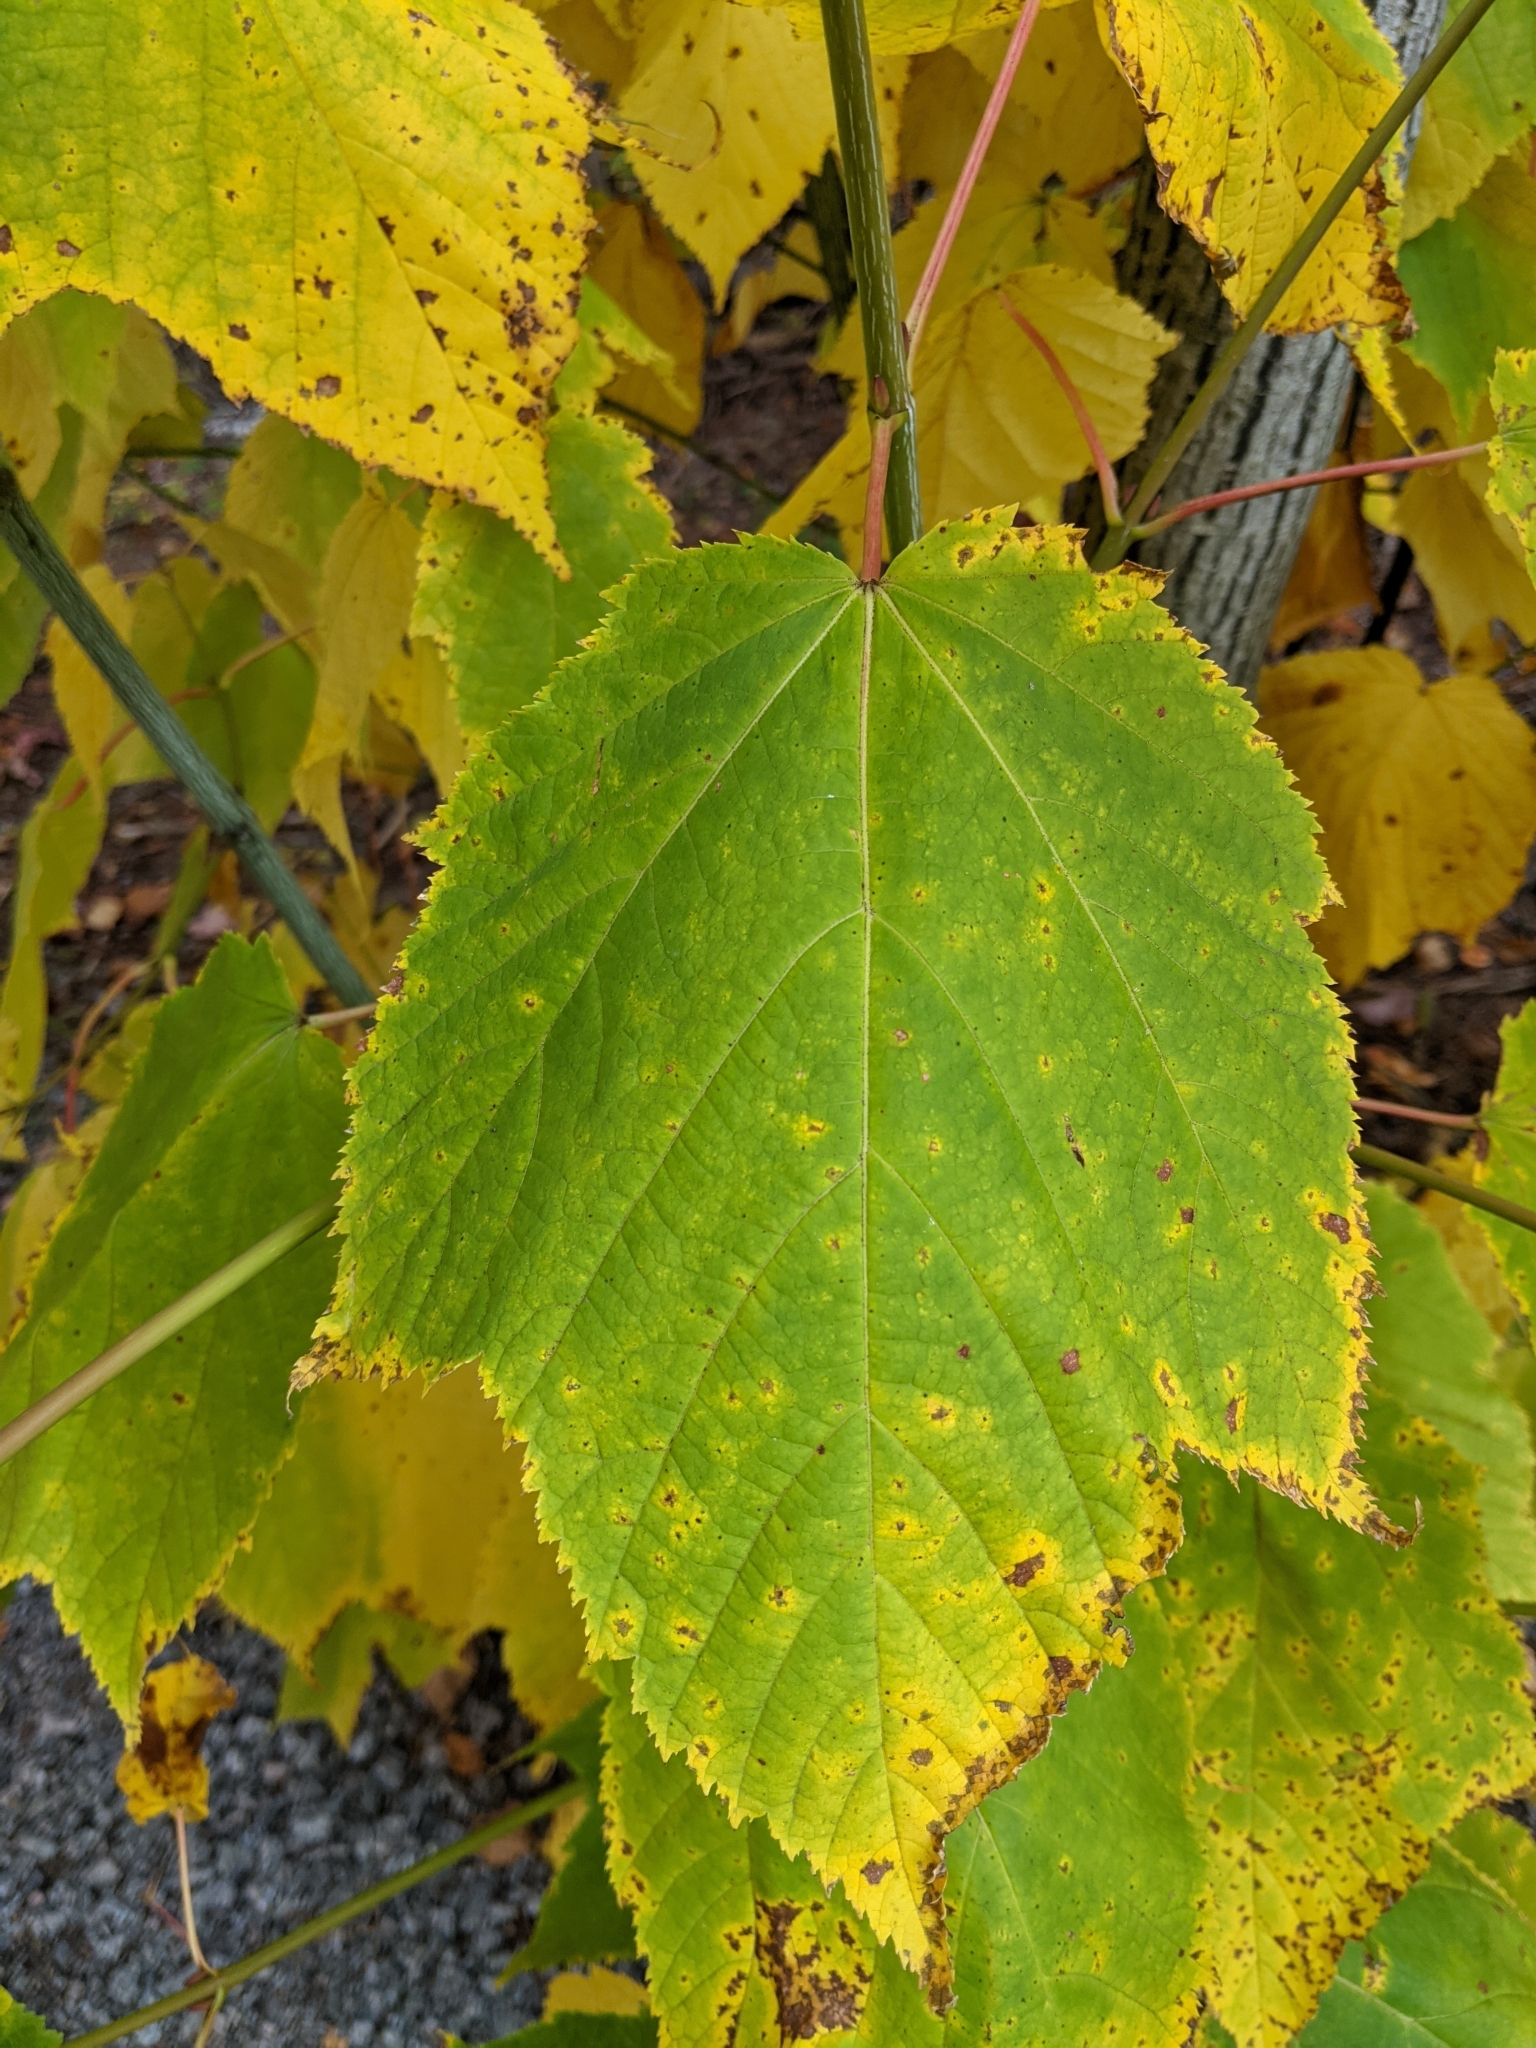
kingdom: Plantae
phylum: Tracheophyta
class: Magnoliopsida
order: Sapindales
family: Sapindaceae
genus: Acer
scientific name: Acer pensylvanicum
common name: Moosewood
